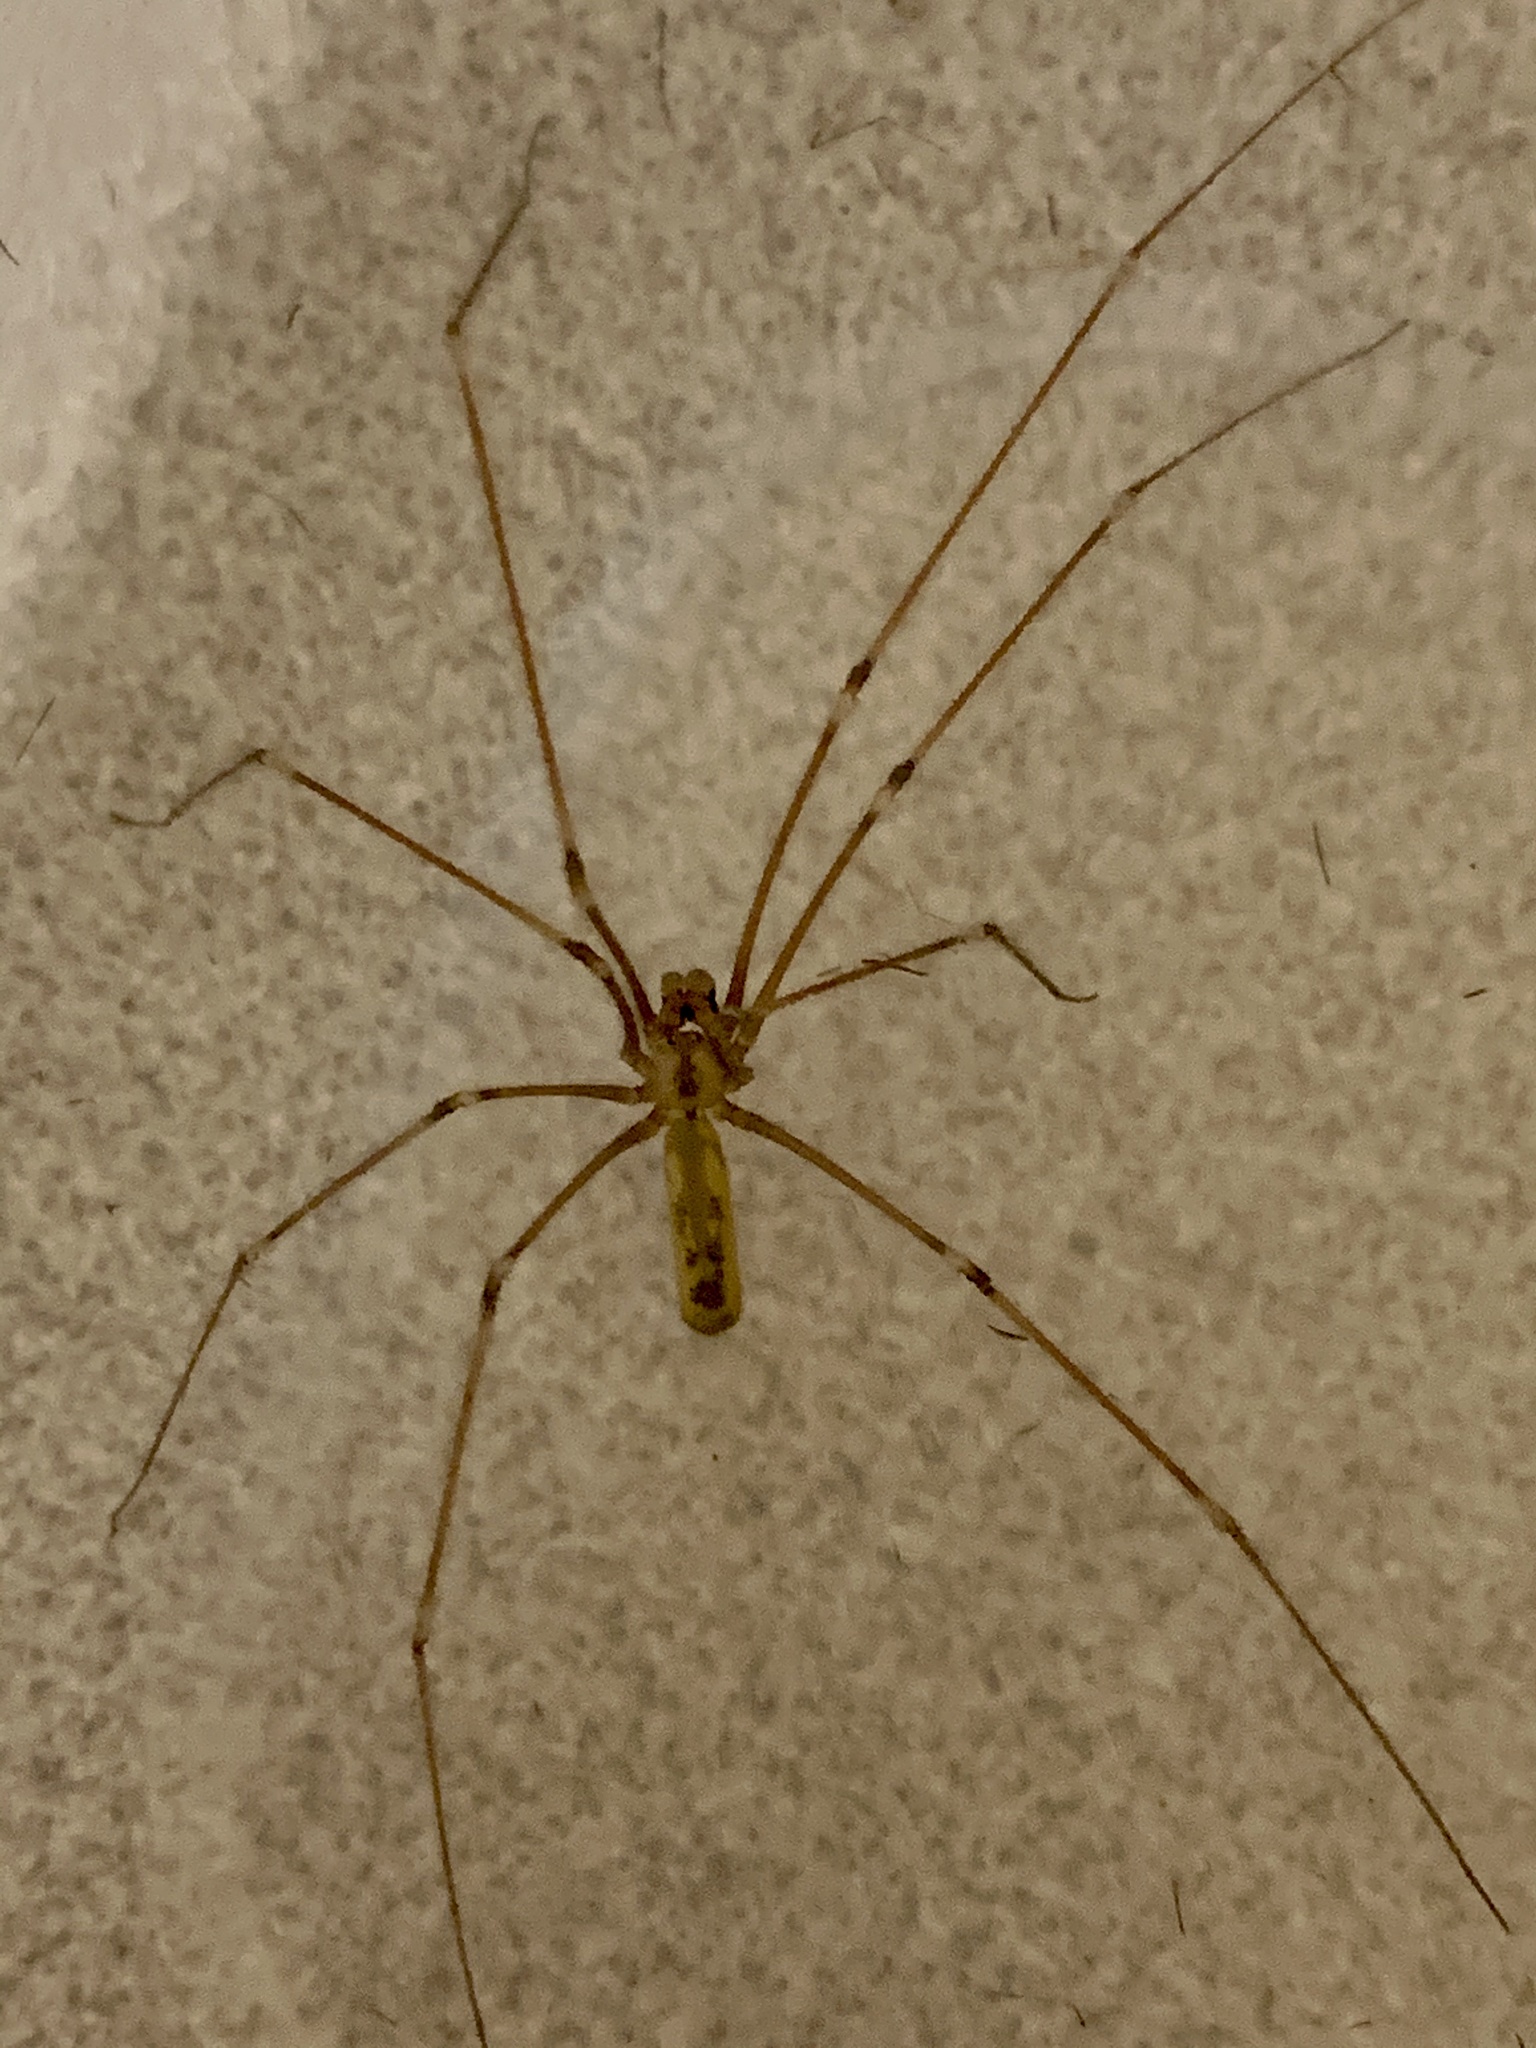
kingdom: Animalia
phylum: Arthropoda
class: Arachnida
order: Araneae
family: Pholcidae
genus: Pholcus
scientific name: Pholcus phalangioides
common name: Longbodied cellar spider
